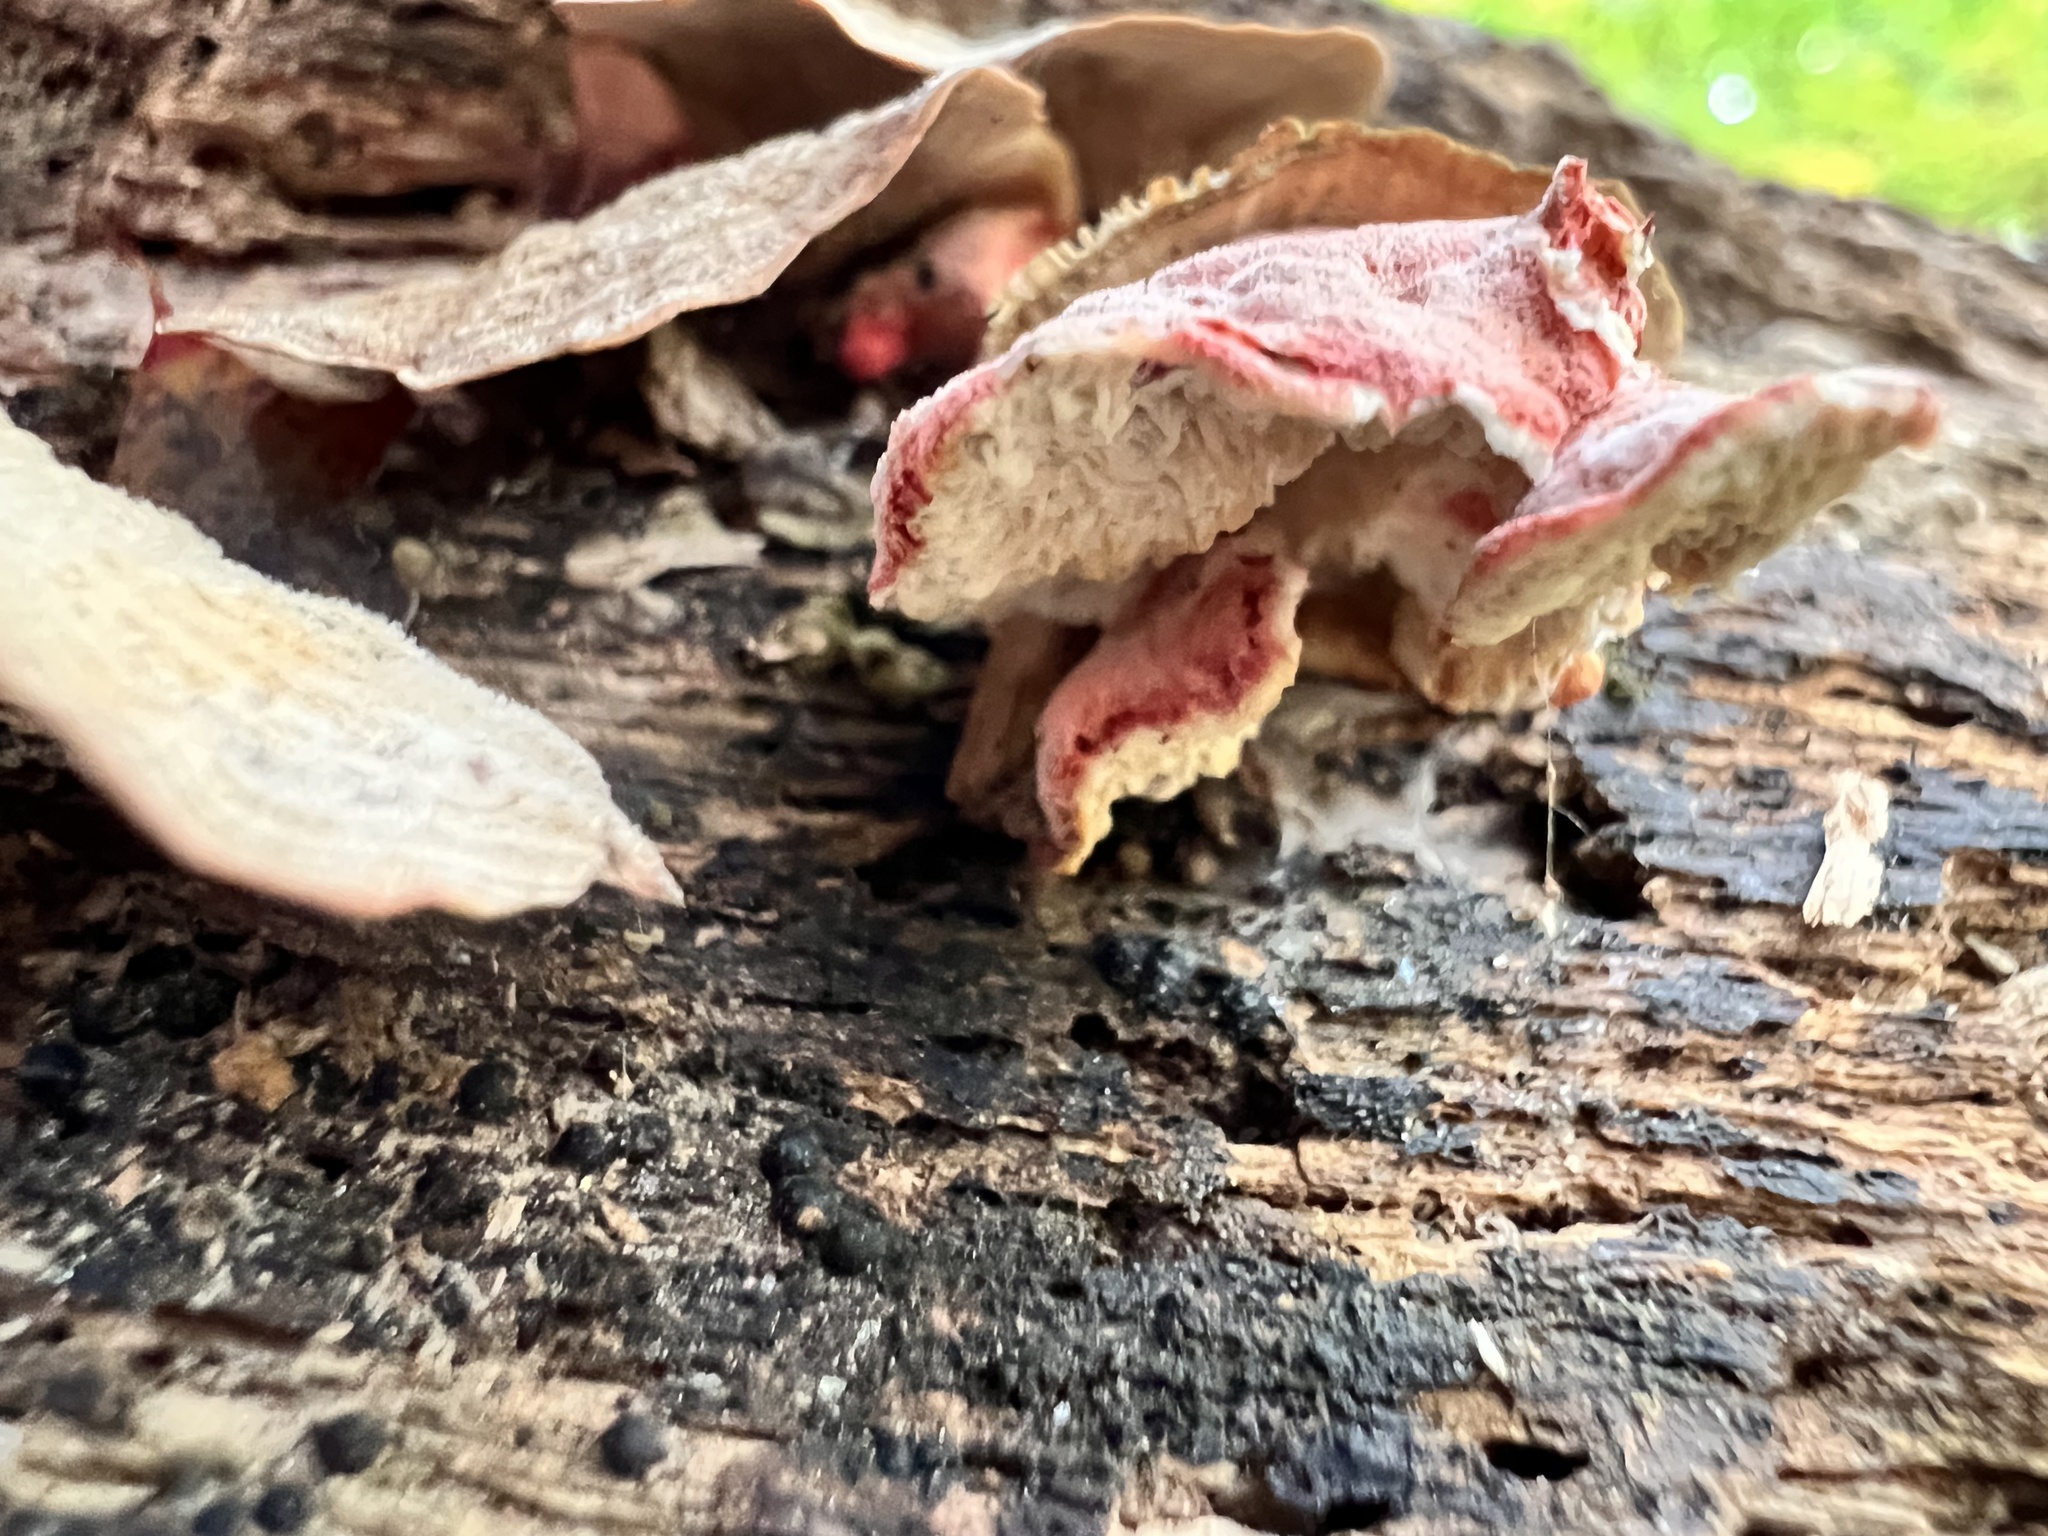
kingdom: Fungi
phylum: Basidiomycota
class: Agaricomycetes
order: Polyporales
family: Irpicaceae
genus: Byssomerulius
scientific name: Byssomerulius incarnatus
